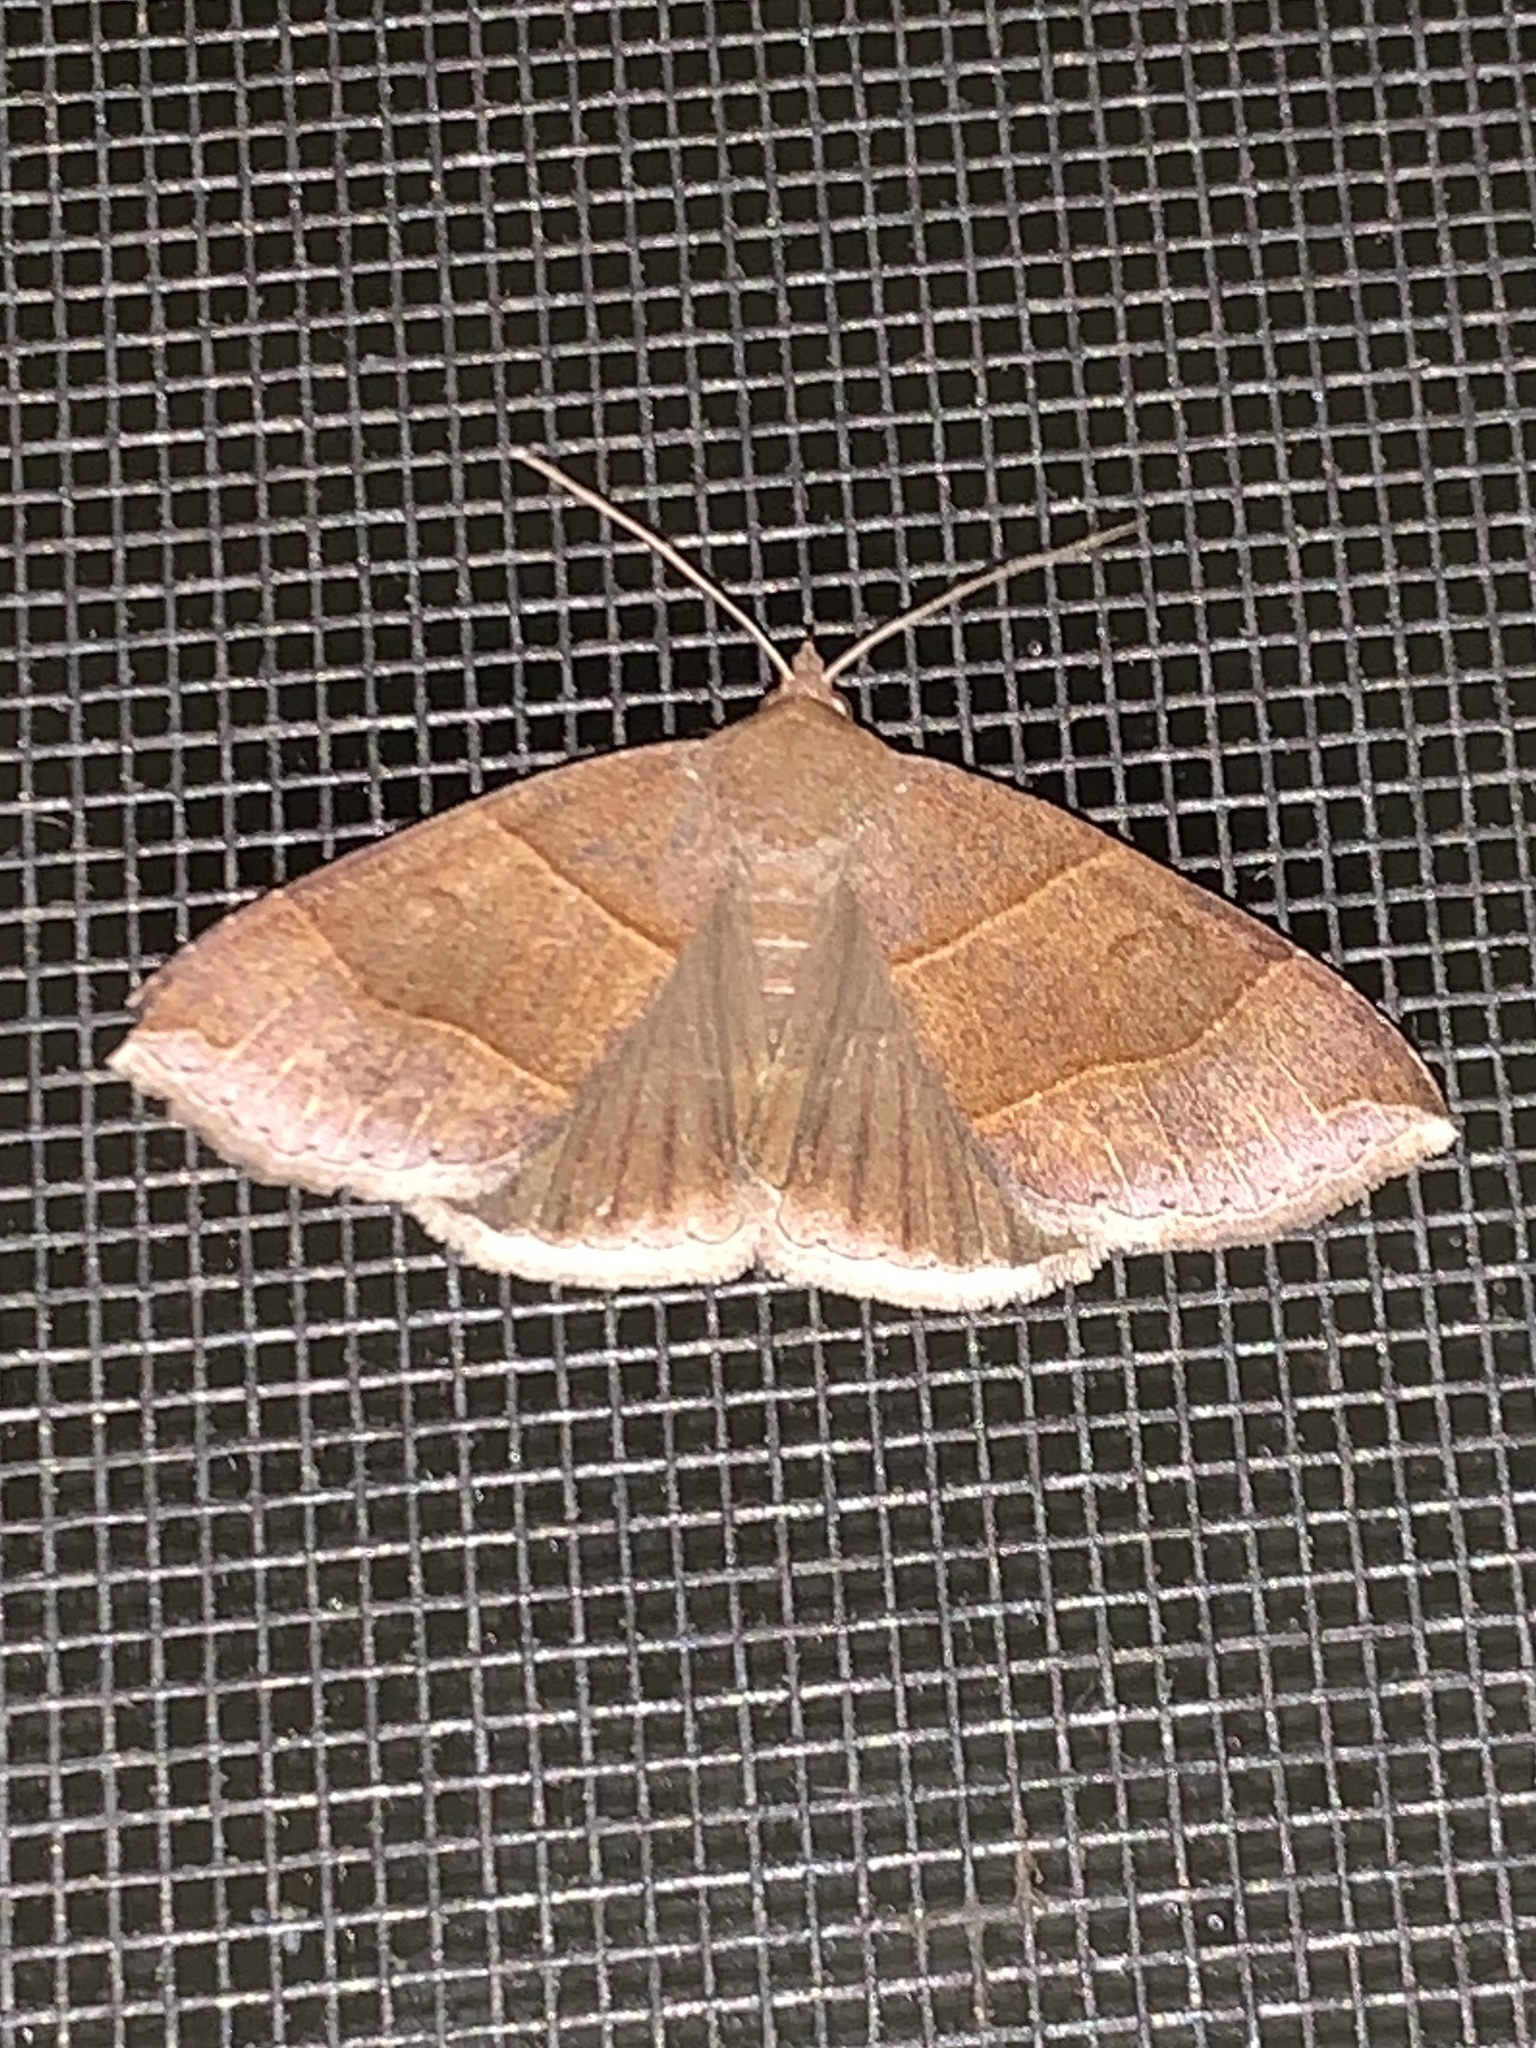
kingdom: Animalia
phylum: Arthropoda
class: Insecta
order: Lepidoptera
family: Erebidae
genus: Parallelia
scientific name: Parallelia bistriaris
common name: Maple looper moth
